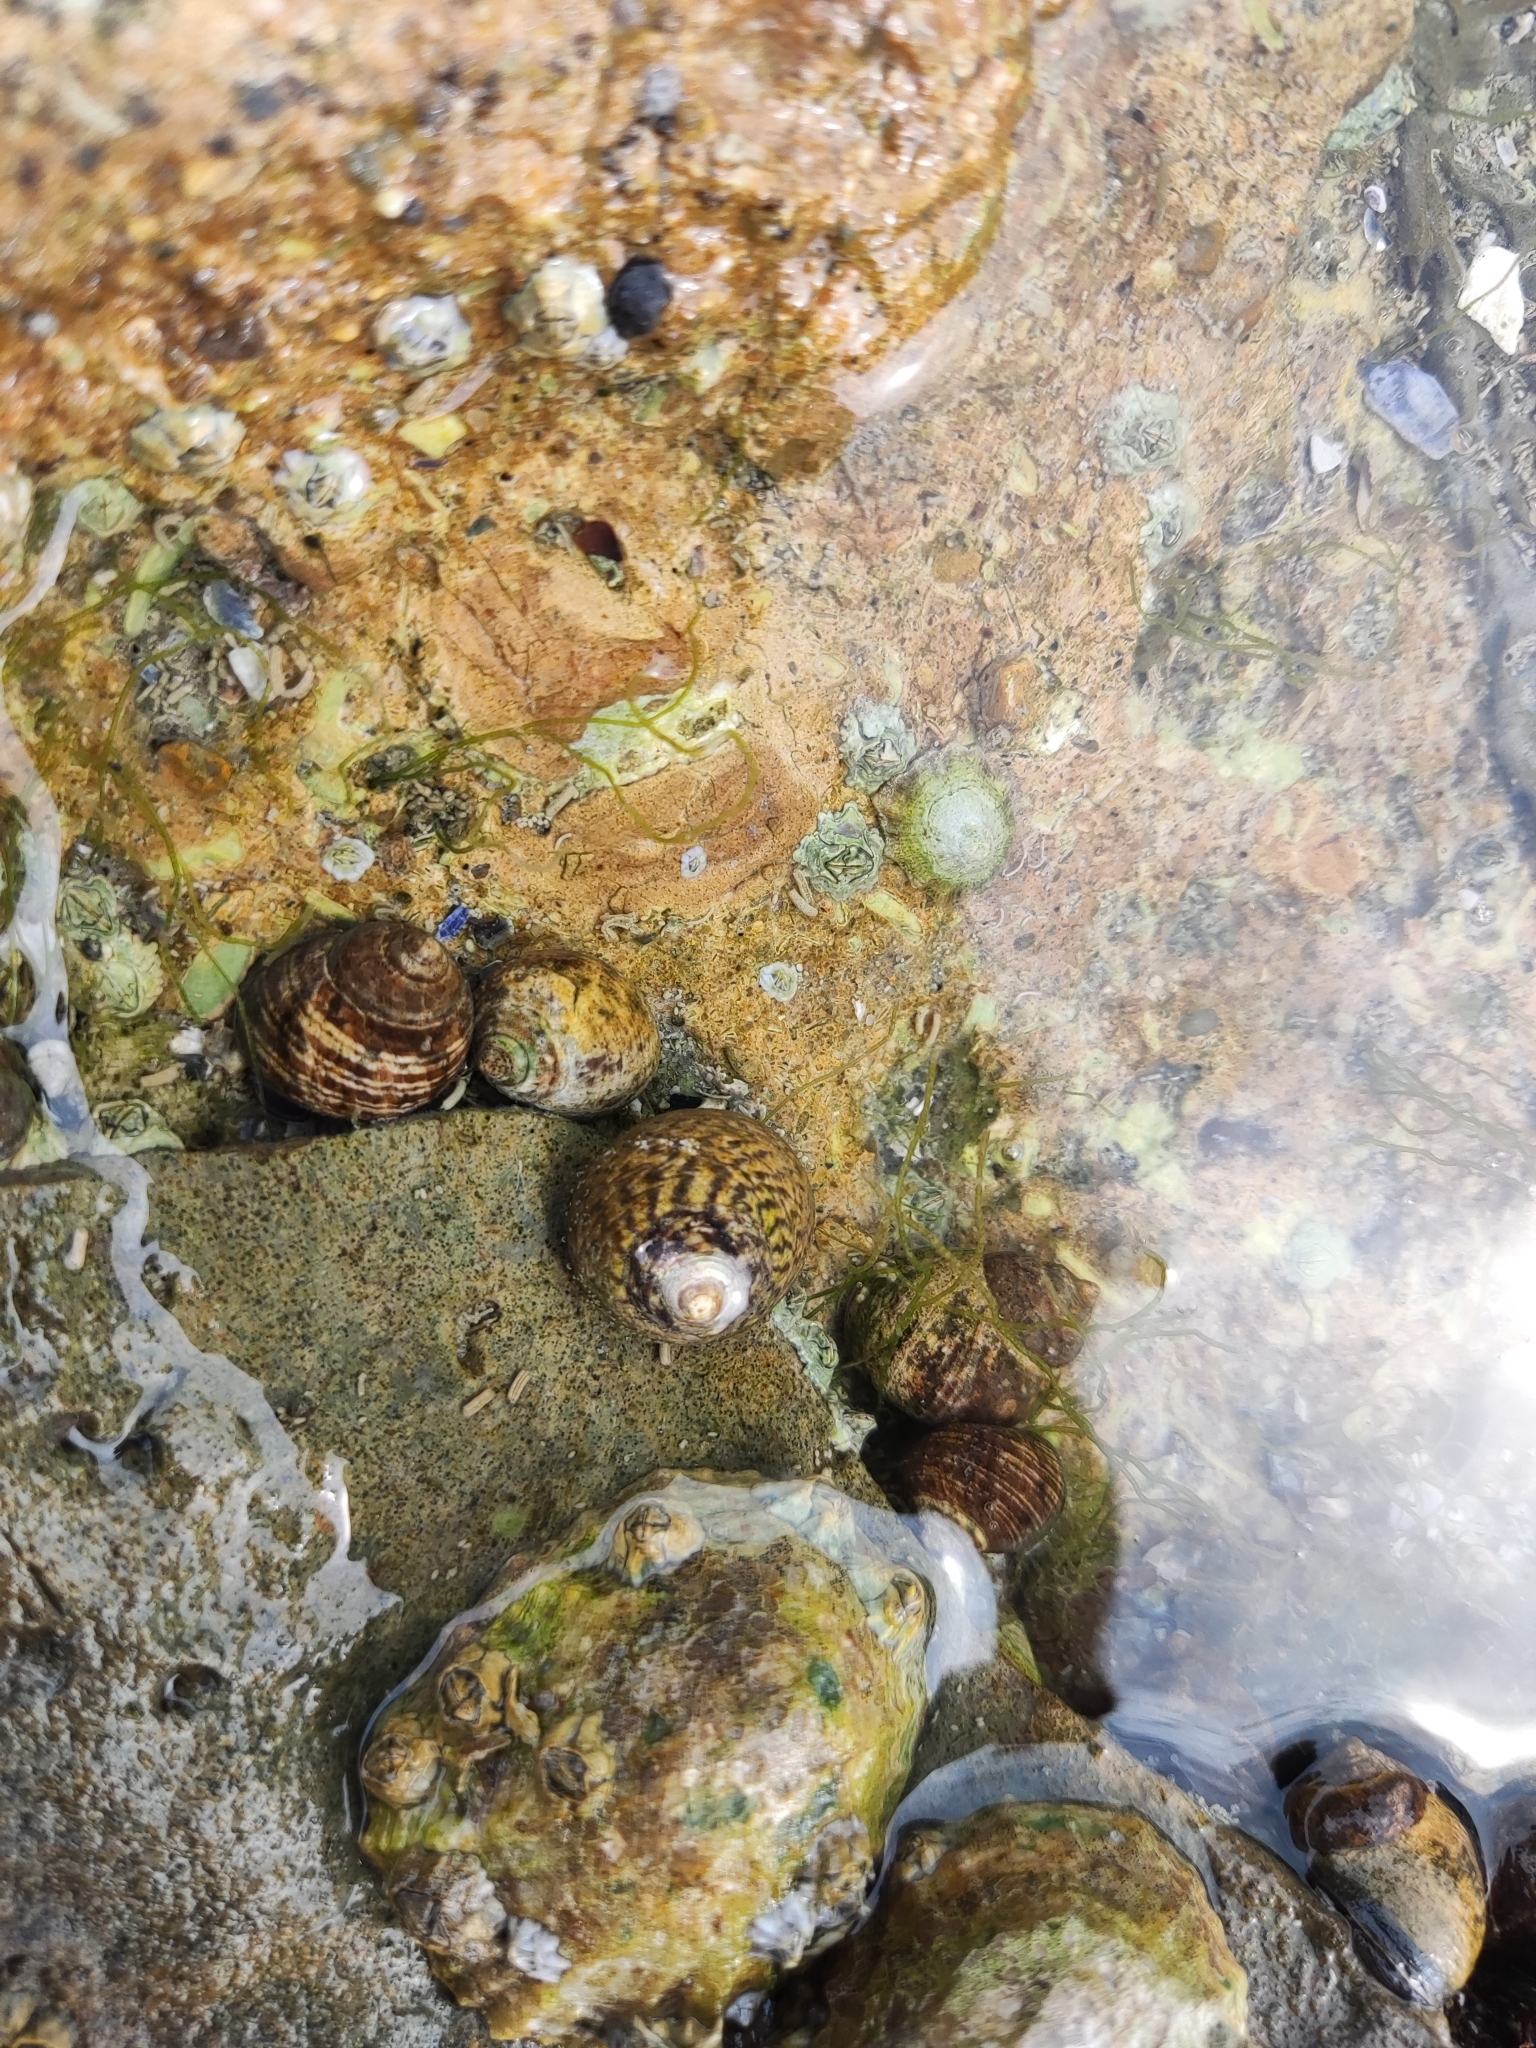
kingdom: Animalia
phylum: Mollusca
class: Gastropoda
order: Trochida
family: Trochidae
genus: Phorcus
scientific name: Phorcus lineatus
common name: Toothed top shell
